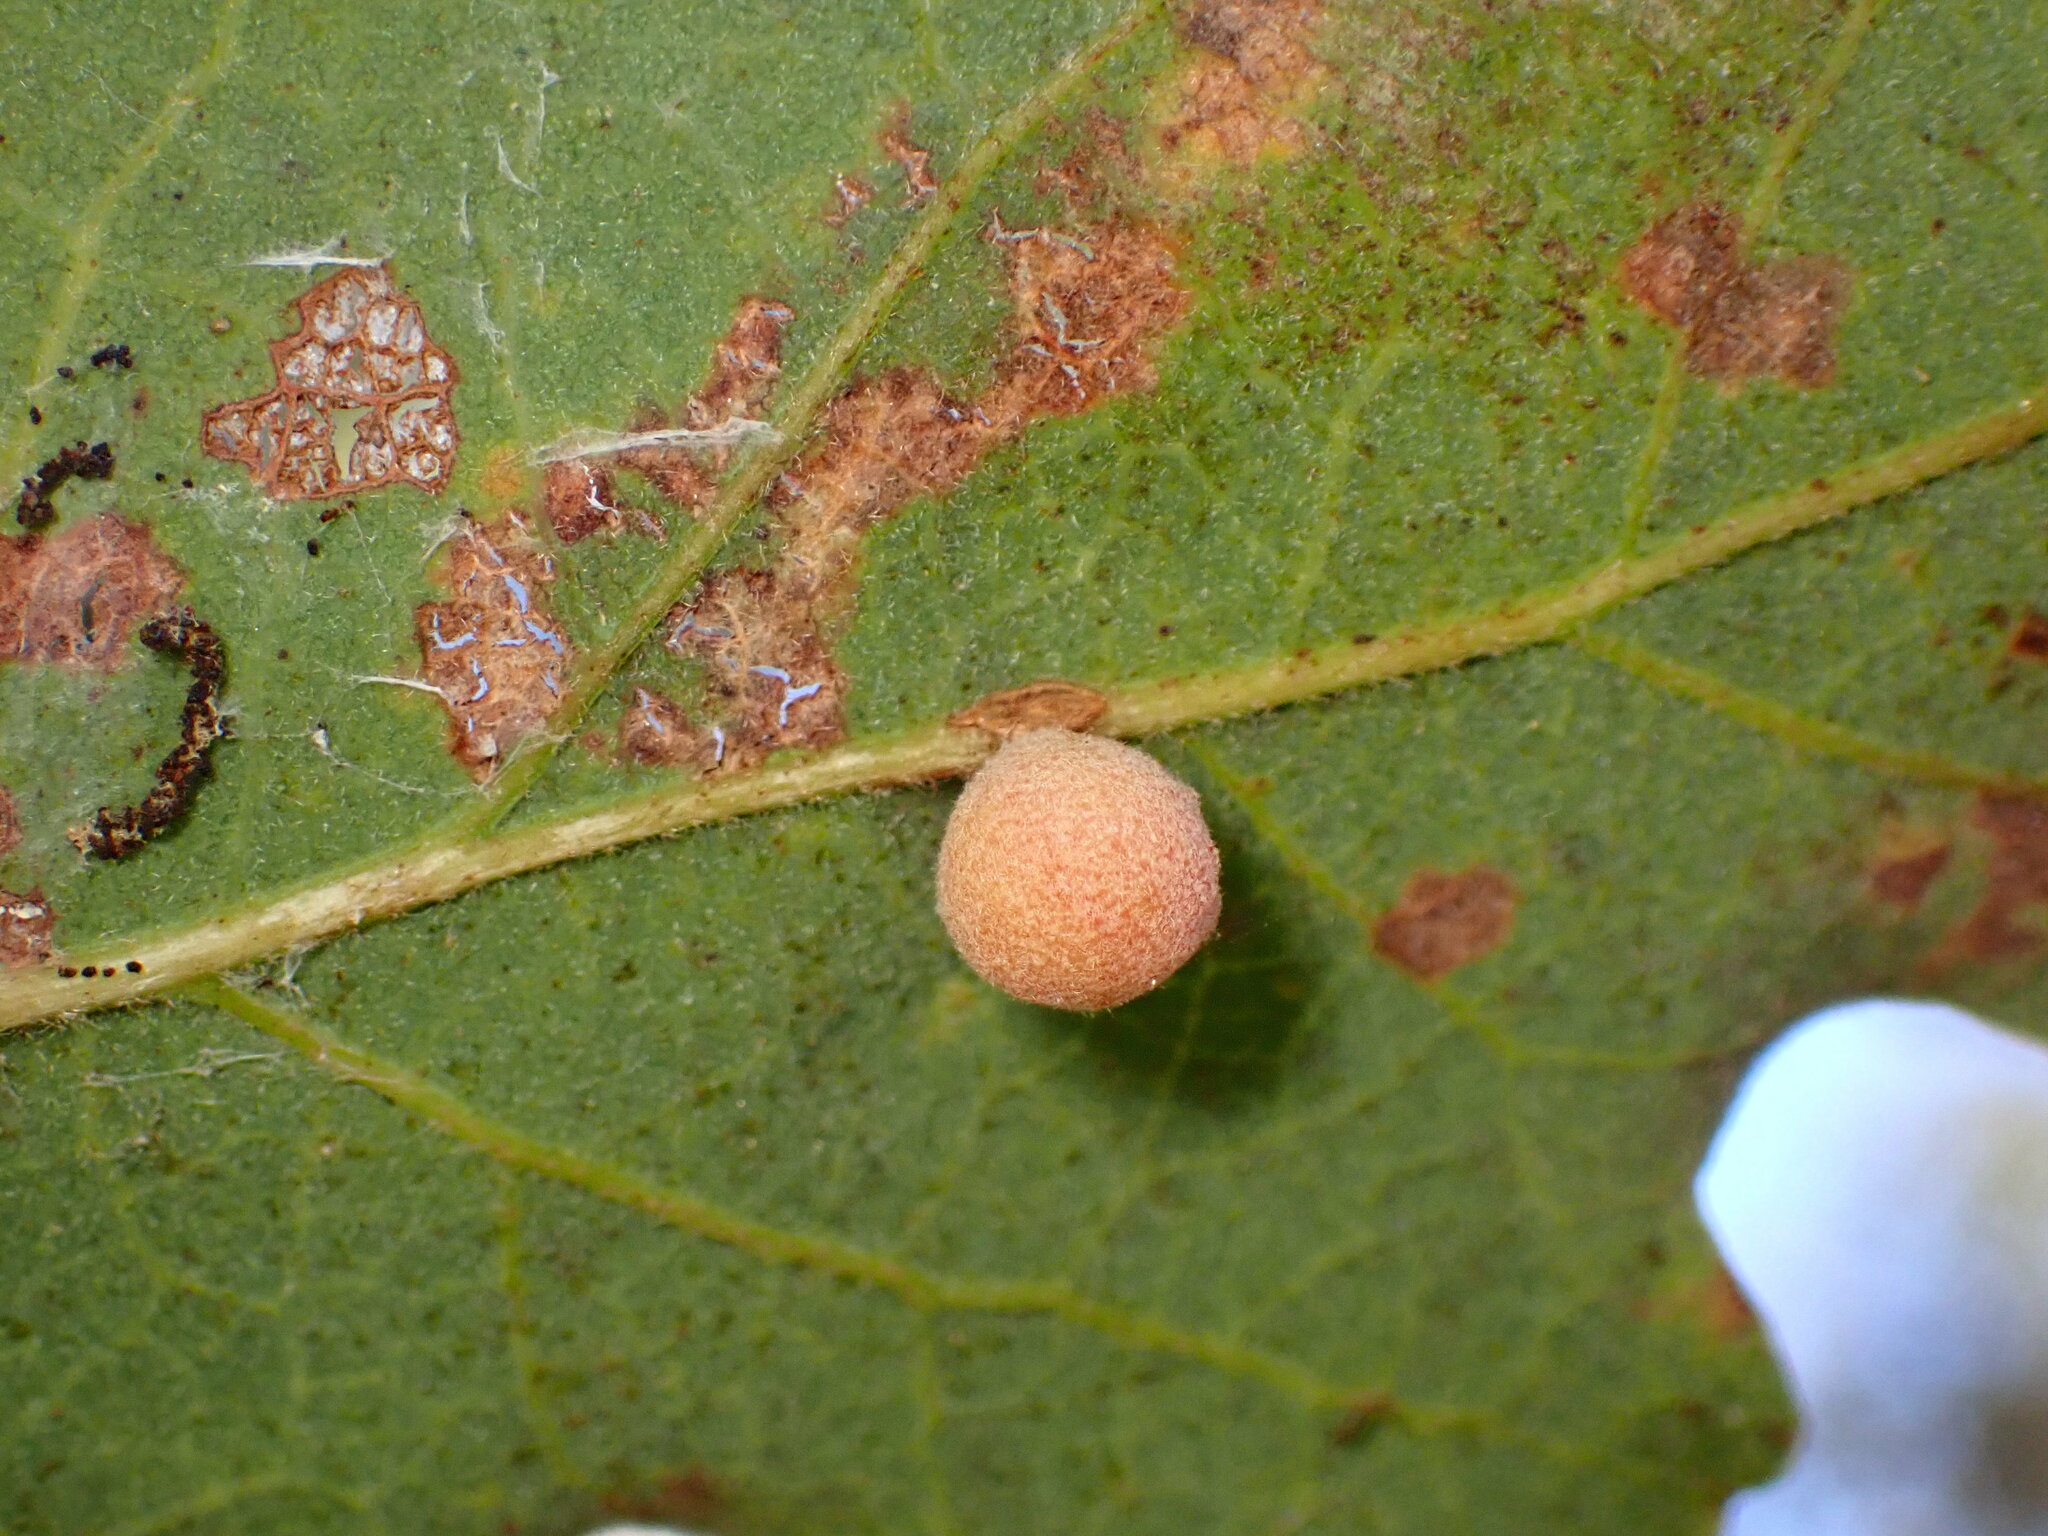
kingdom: Animalia
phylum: Arthropoda
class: Insecta
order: Hymenoptera
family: Cynipidae
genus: Andricus
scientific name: Andricus
